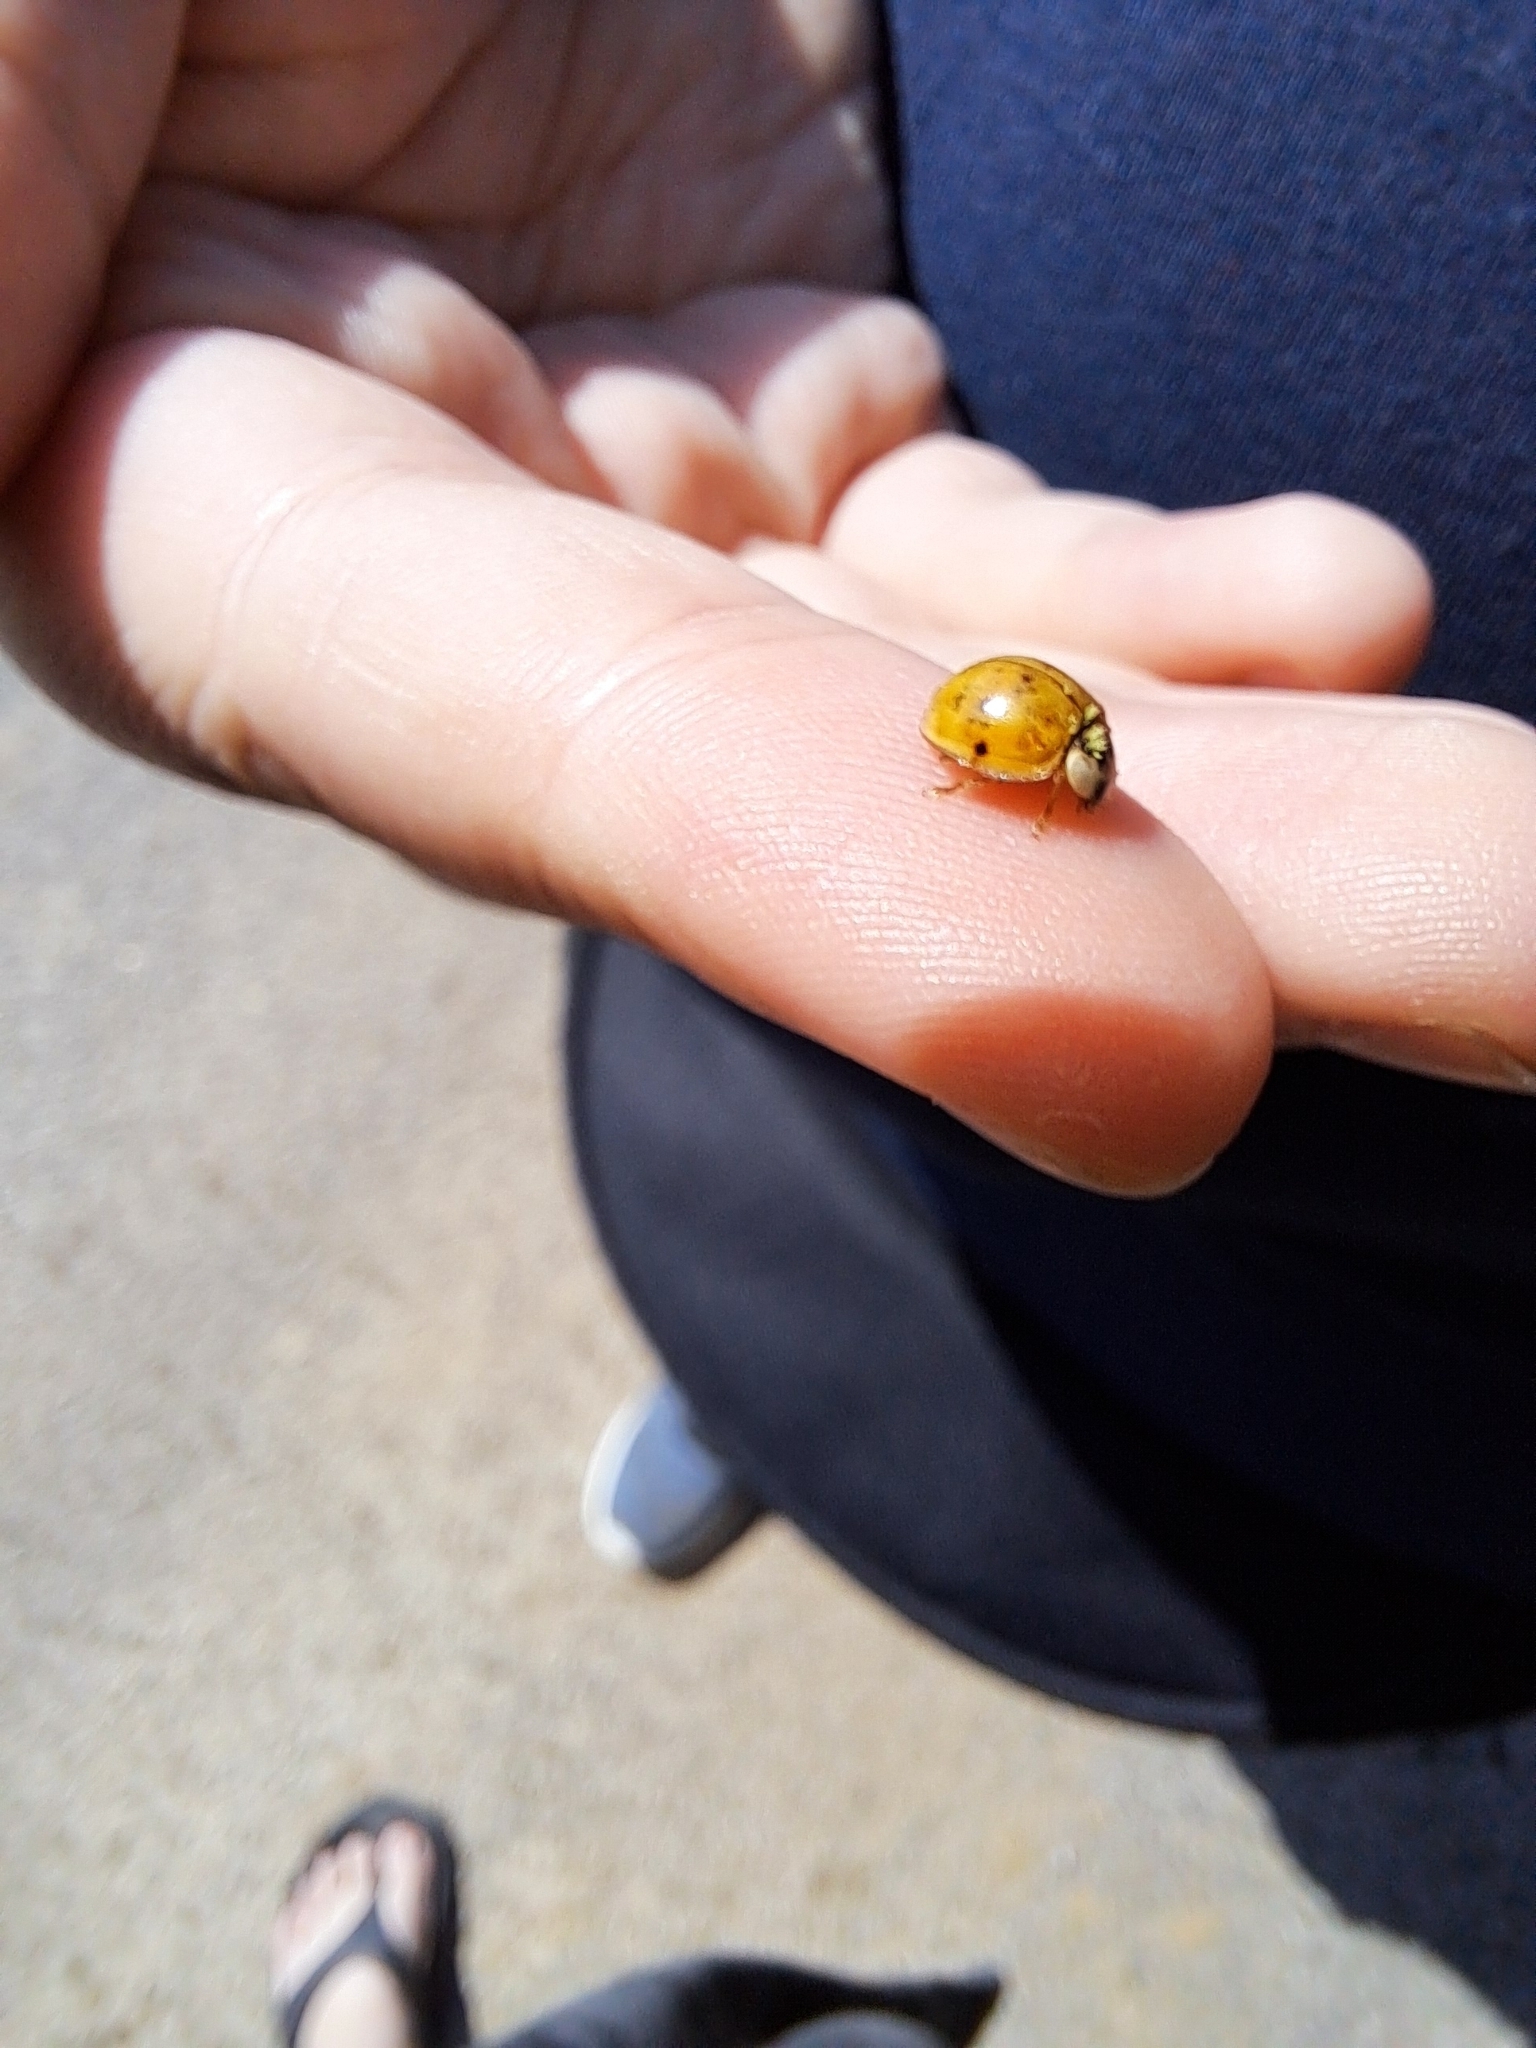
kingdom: Fungi
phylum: Ascomycota
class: Laboulbeniomycetes
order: Laboulbeniales
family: Laboulbeniaceae
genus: Hesperomyces
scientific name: Hesperomyces harmoniae
